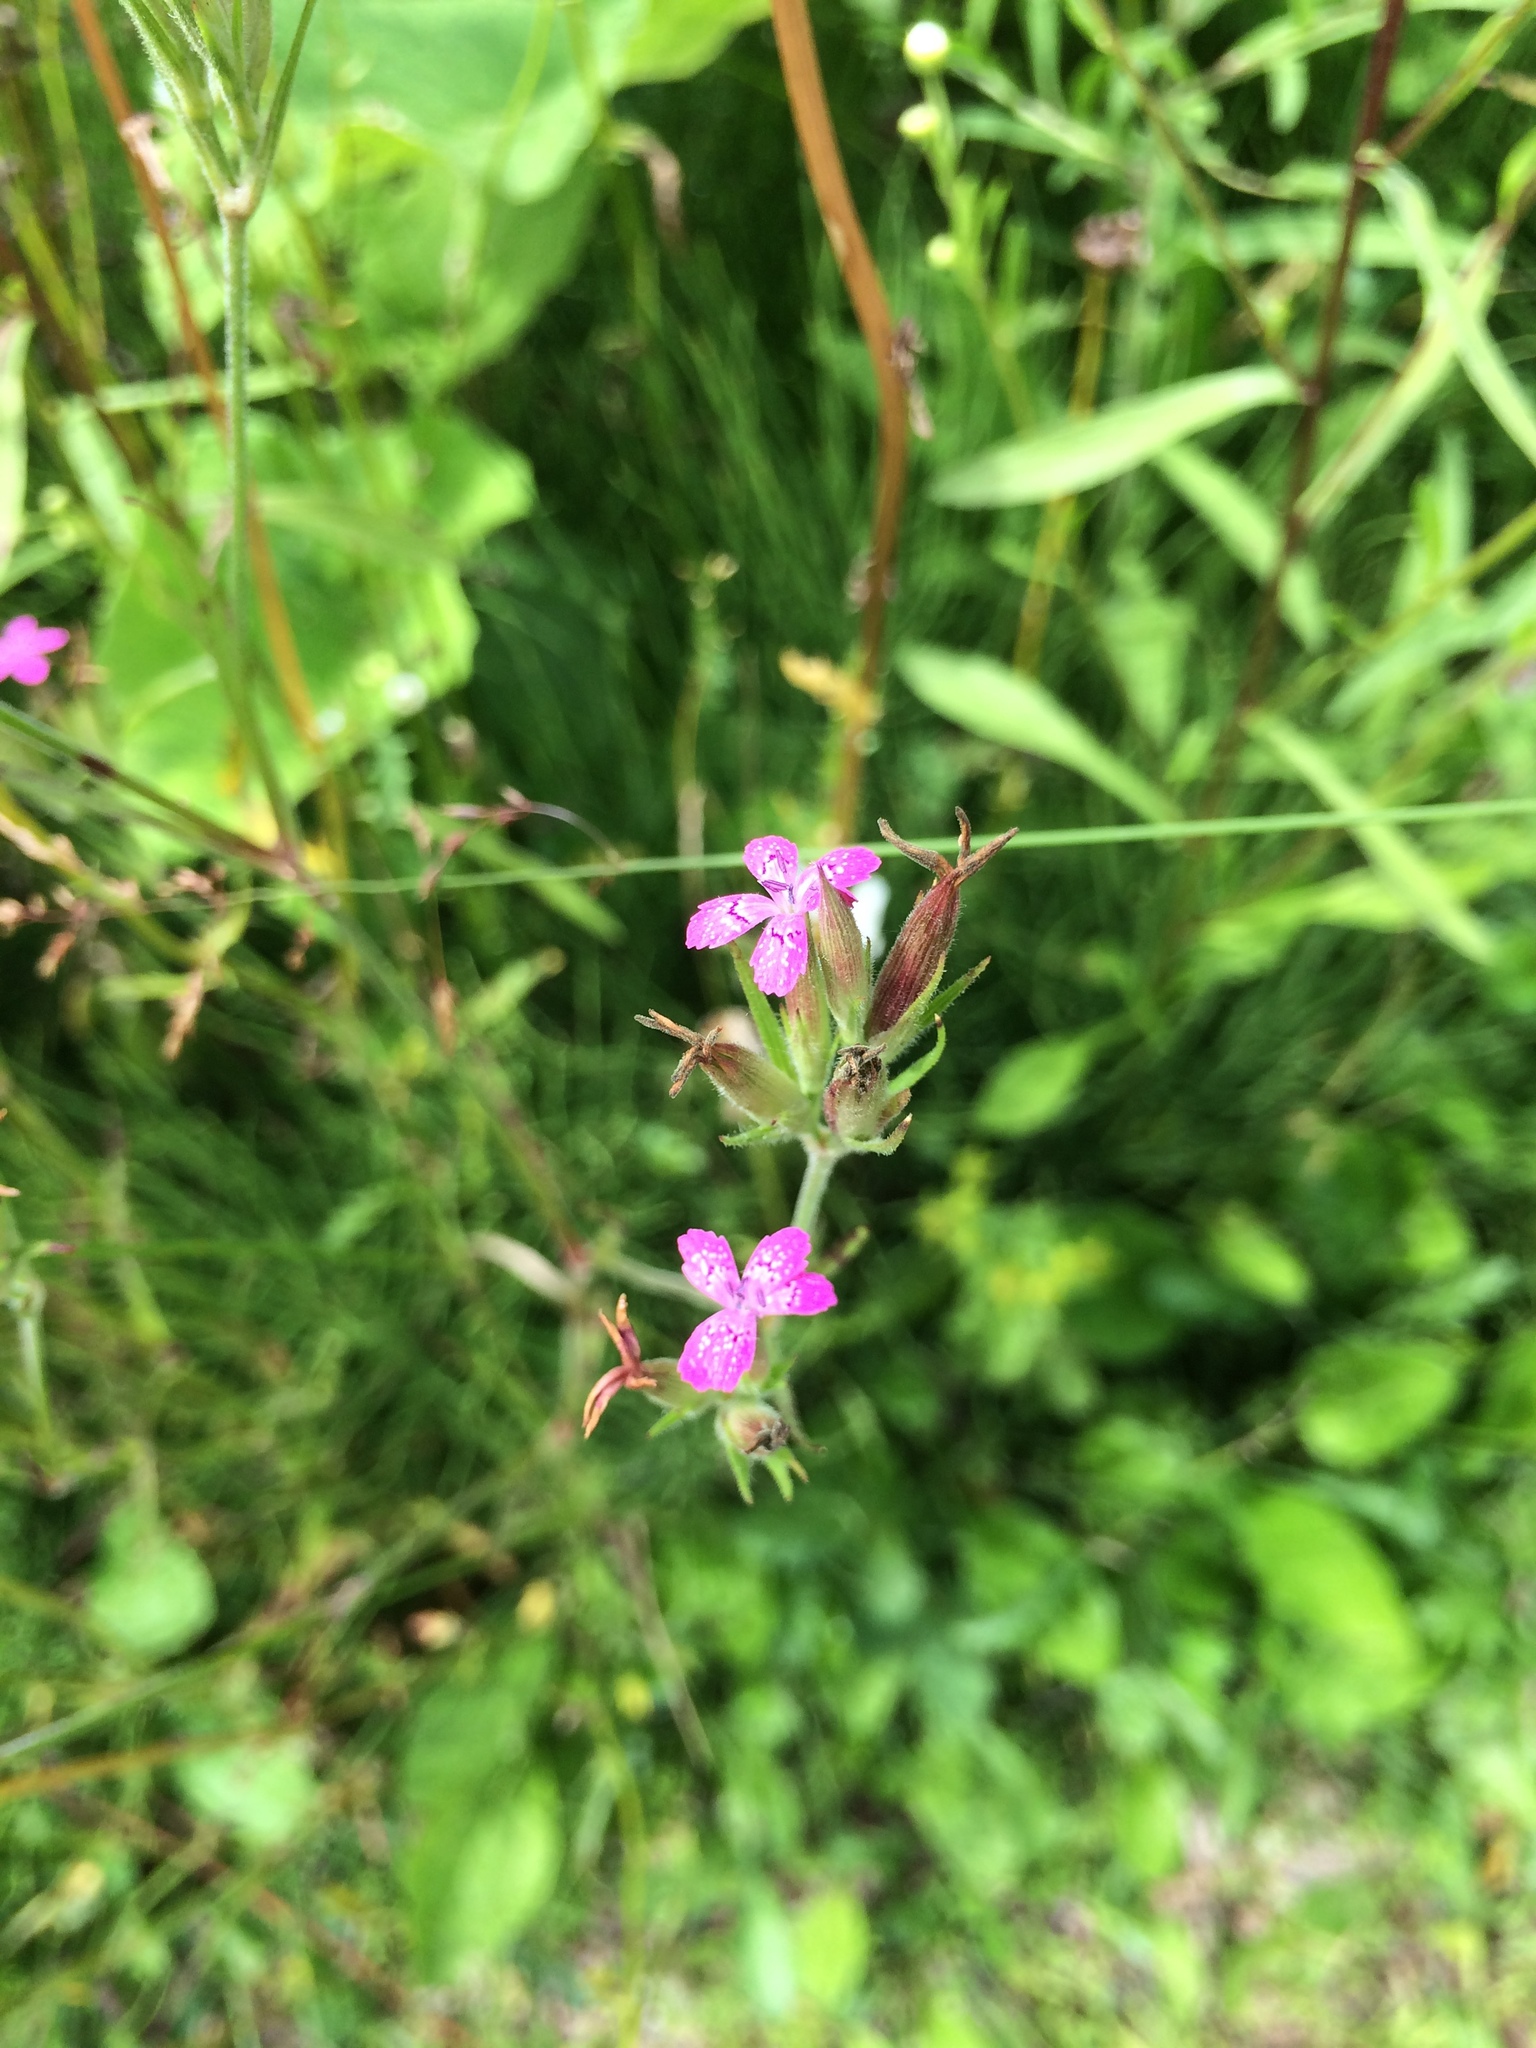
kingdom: Plantae
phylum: Tracheophyta
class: Magnoliopsida
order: Caryophyllales
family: Caryophyllaceae
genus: Dianthus
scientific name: Dianthus armeria
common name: Deptford pink
